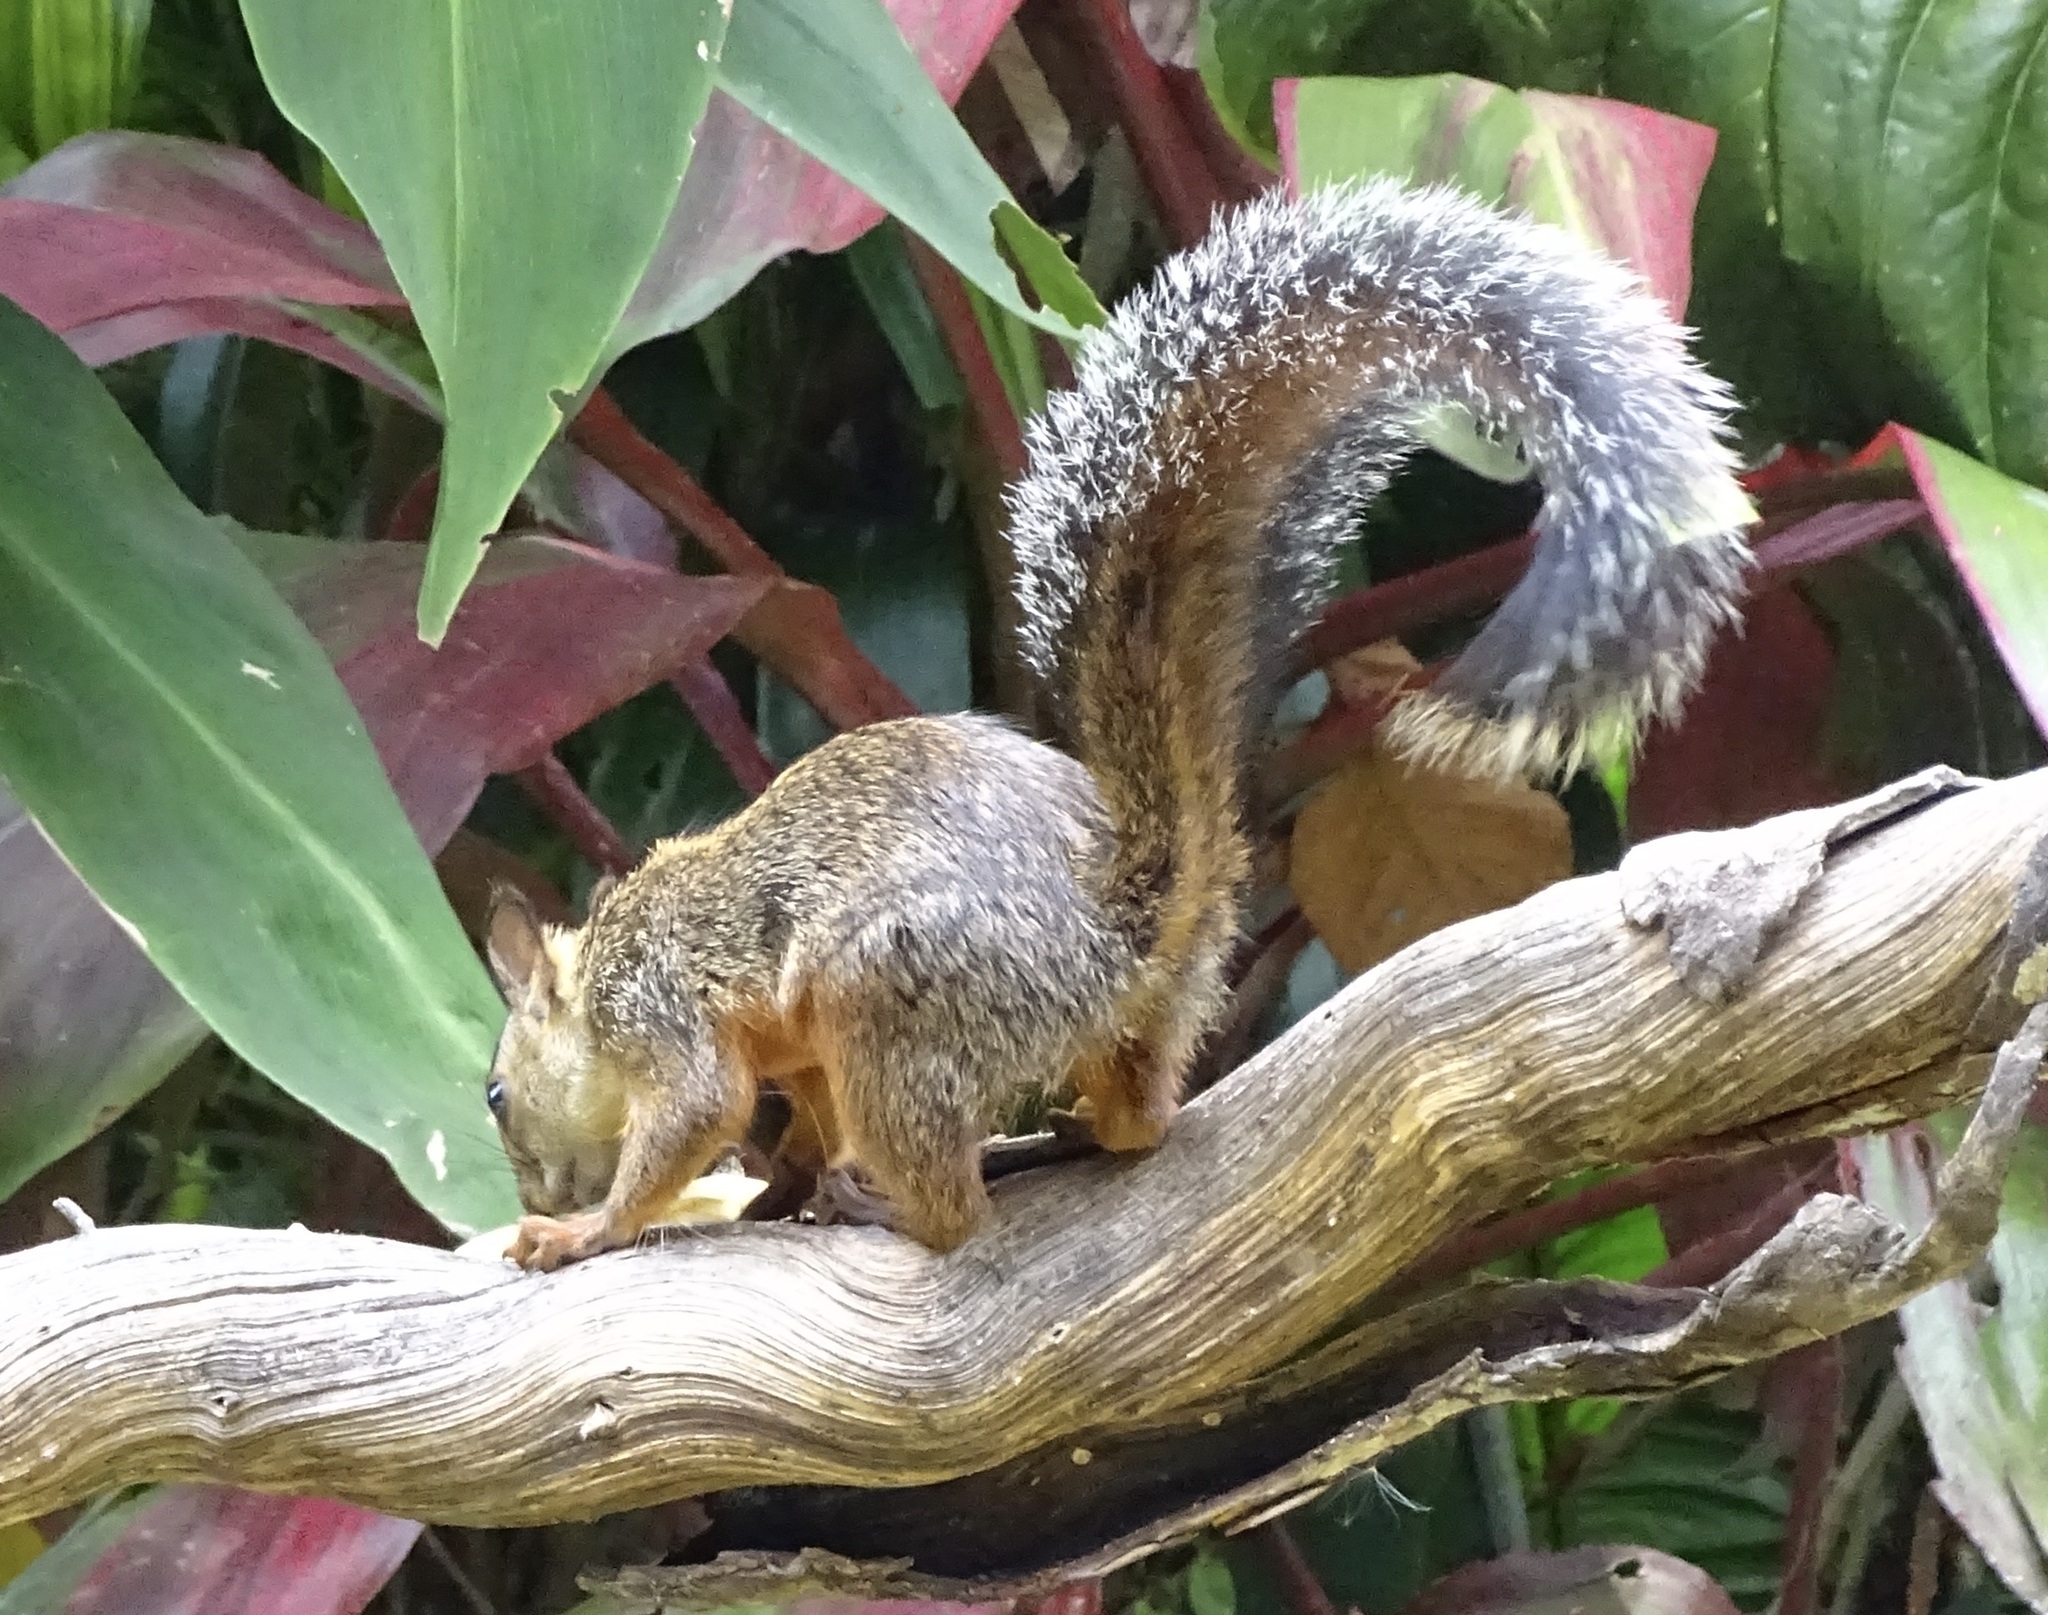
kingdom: Animalia
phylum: Chordata
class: Mammalia
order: Rodentia
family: Sciuridae
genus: Sciurus
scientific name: Sciurus variegatoides
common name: Variegated squirrel
